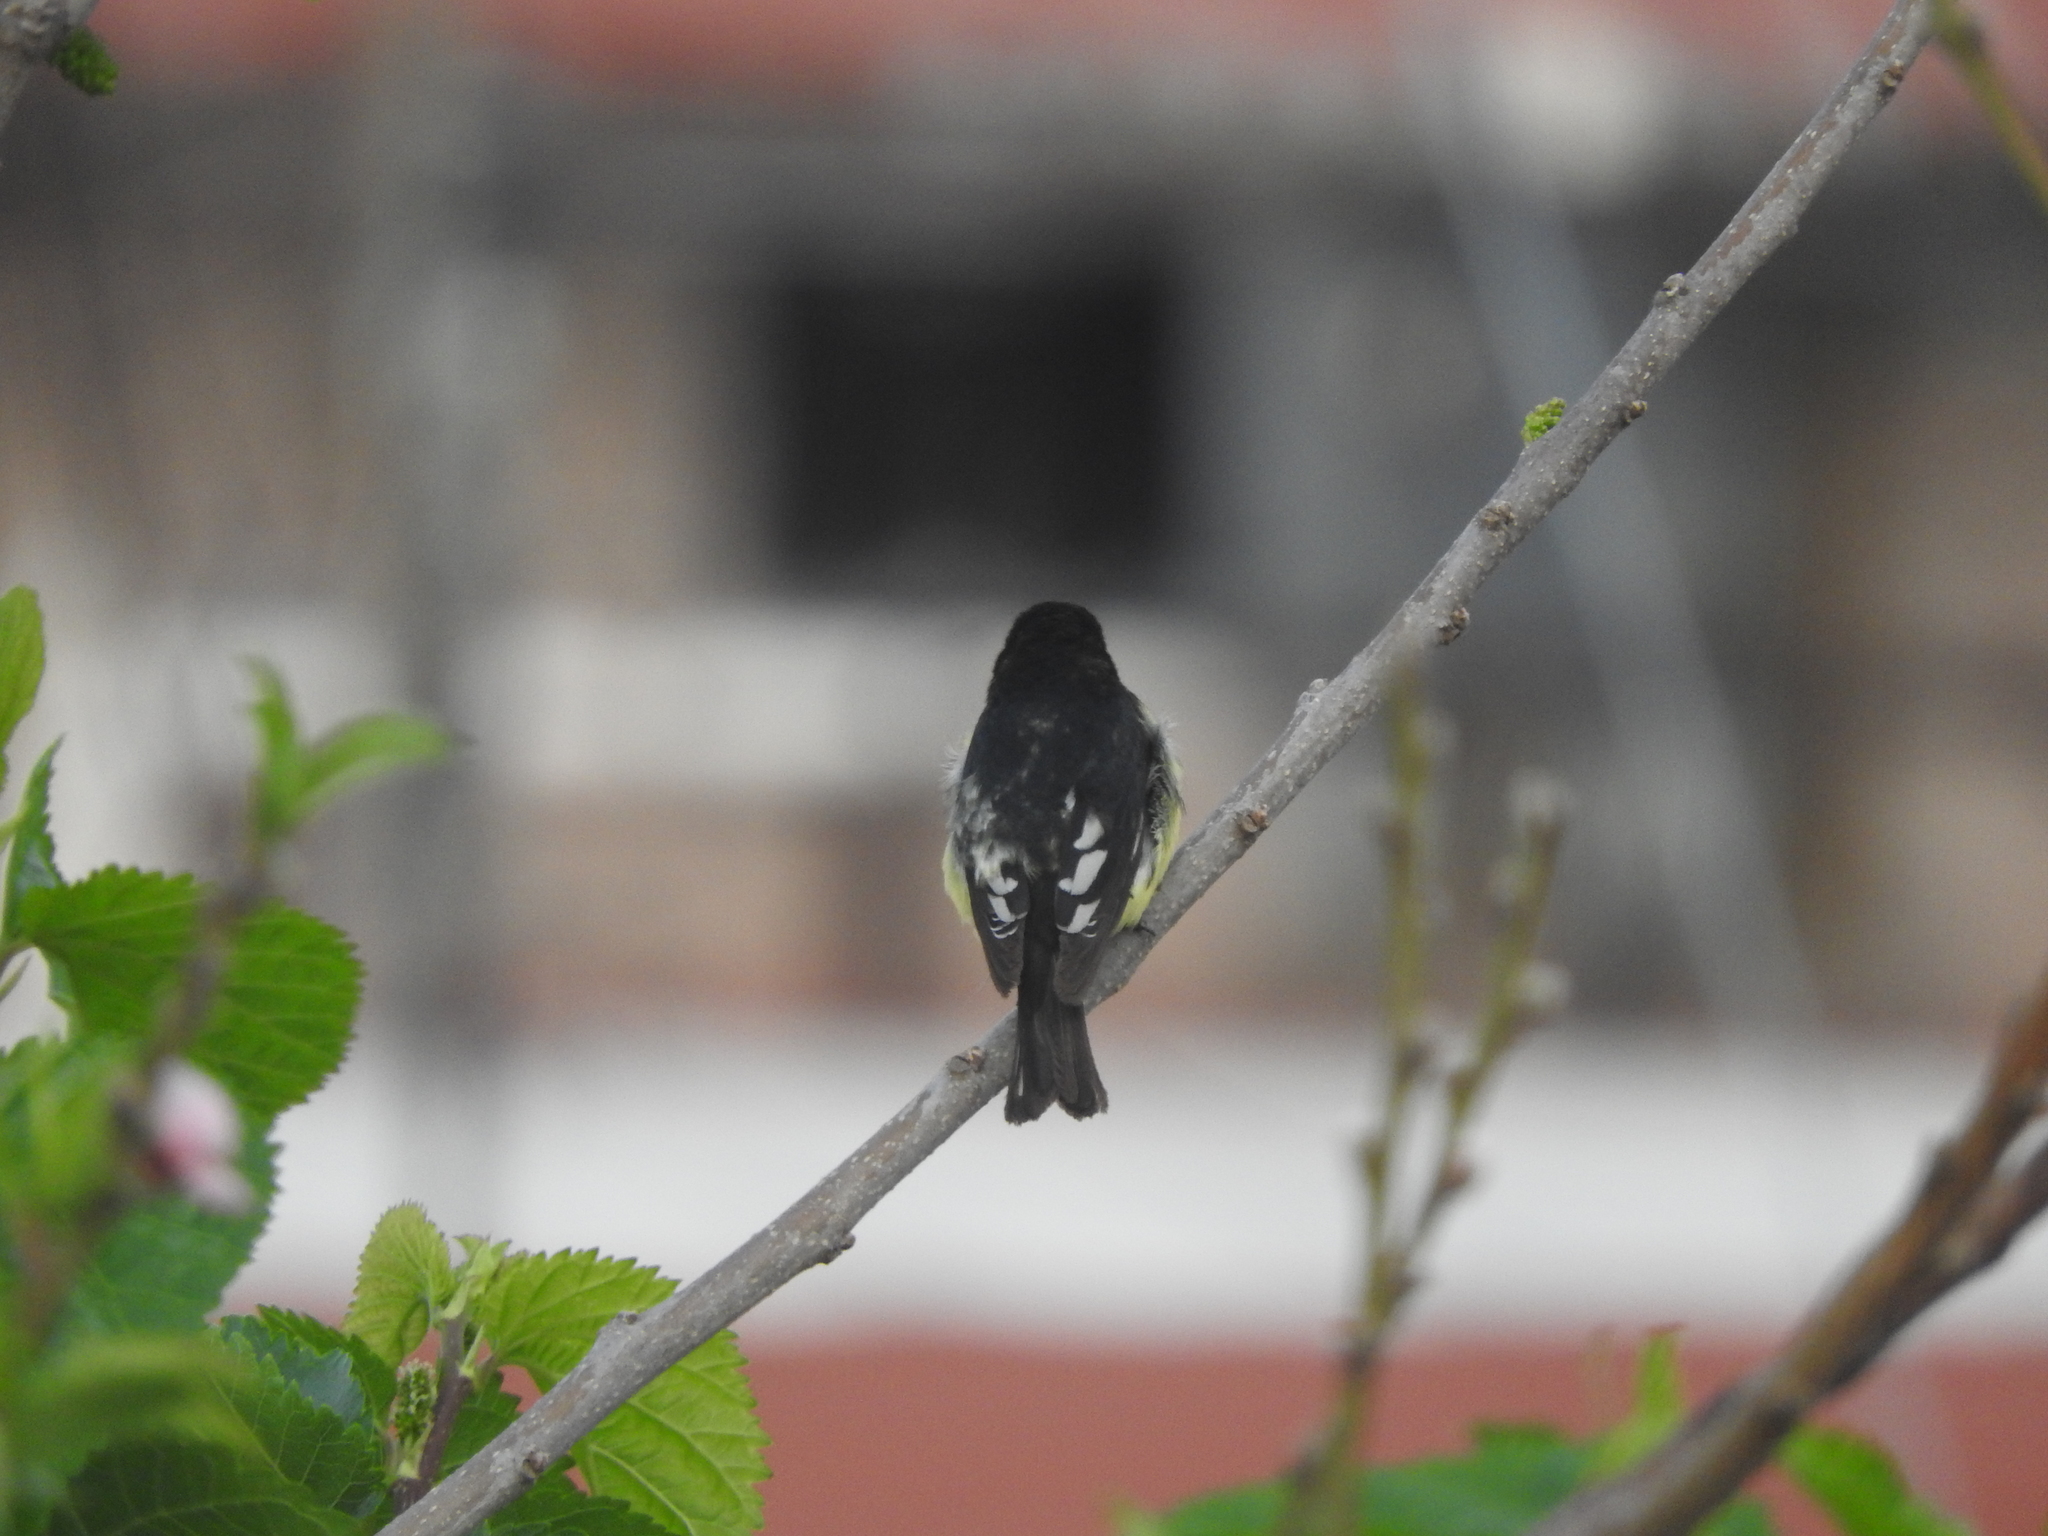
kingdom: Animalia
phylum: Chordata
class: Aves
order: Passeriformes
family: Fringillidae
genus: Spinus
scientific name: Spinus psaltria
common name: Lesser goldfinch
